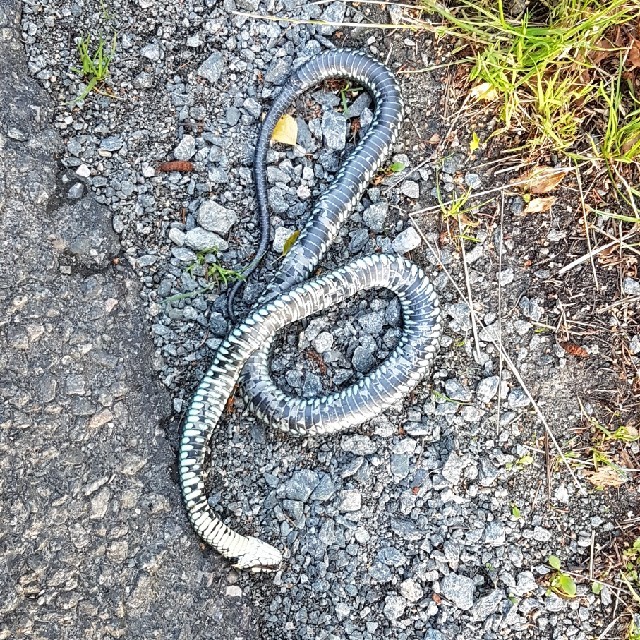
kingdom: Animalia
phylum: Chordata
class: Squamata
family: Colubridae
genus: Natrix
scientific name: Natrix natrix
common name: Grass snake
